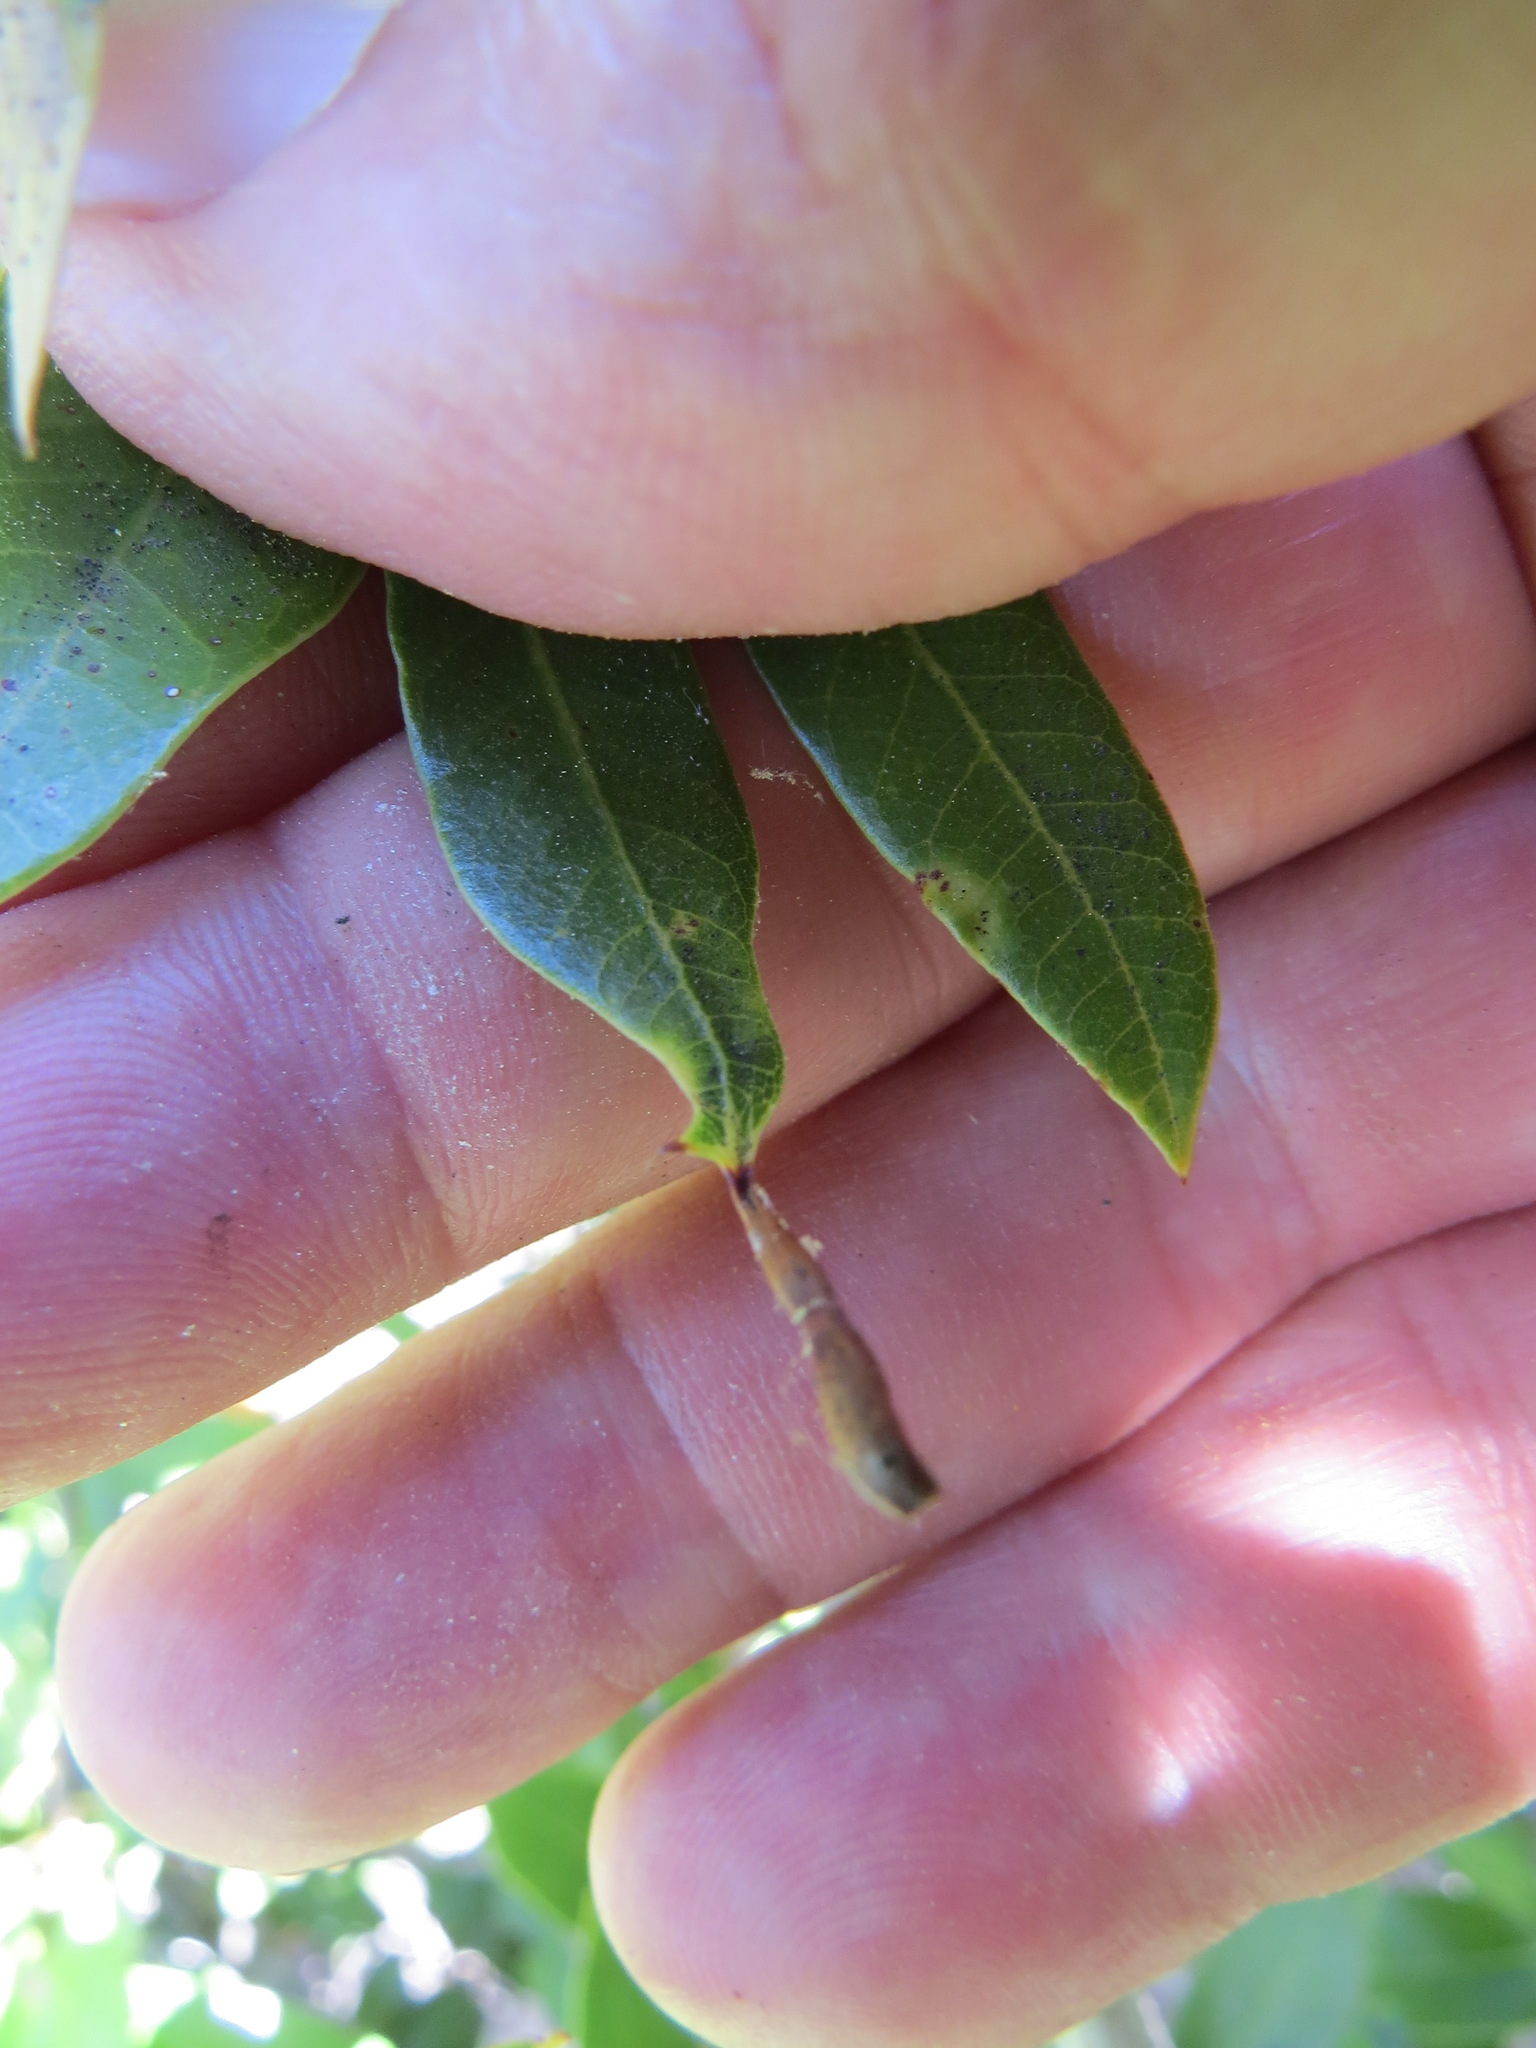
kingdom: Animalia
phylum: Arthropoda
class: Insecta
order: Hymenoptera
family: Cynipidae
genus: Heteroecus
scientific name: Heteroecus
